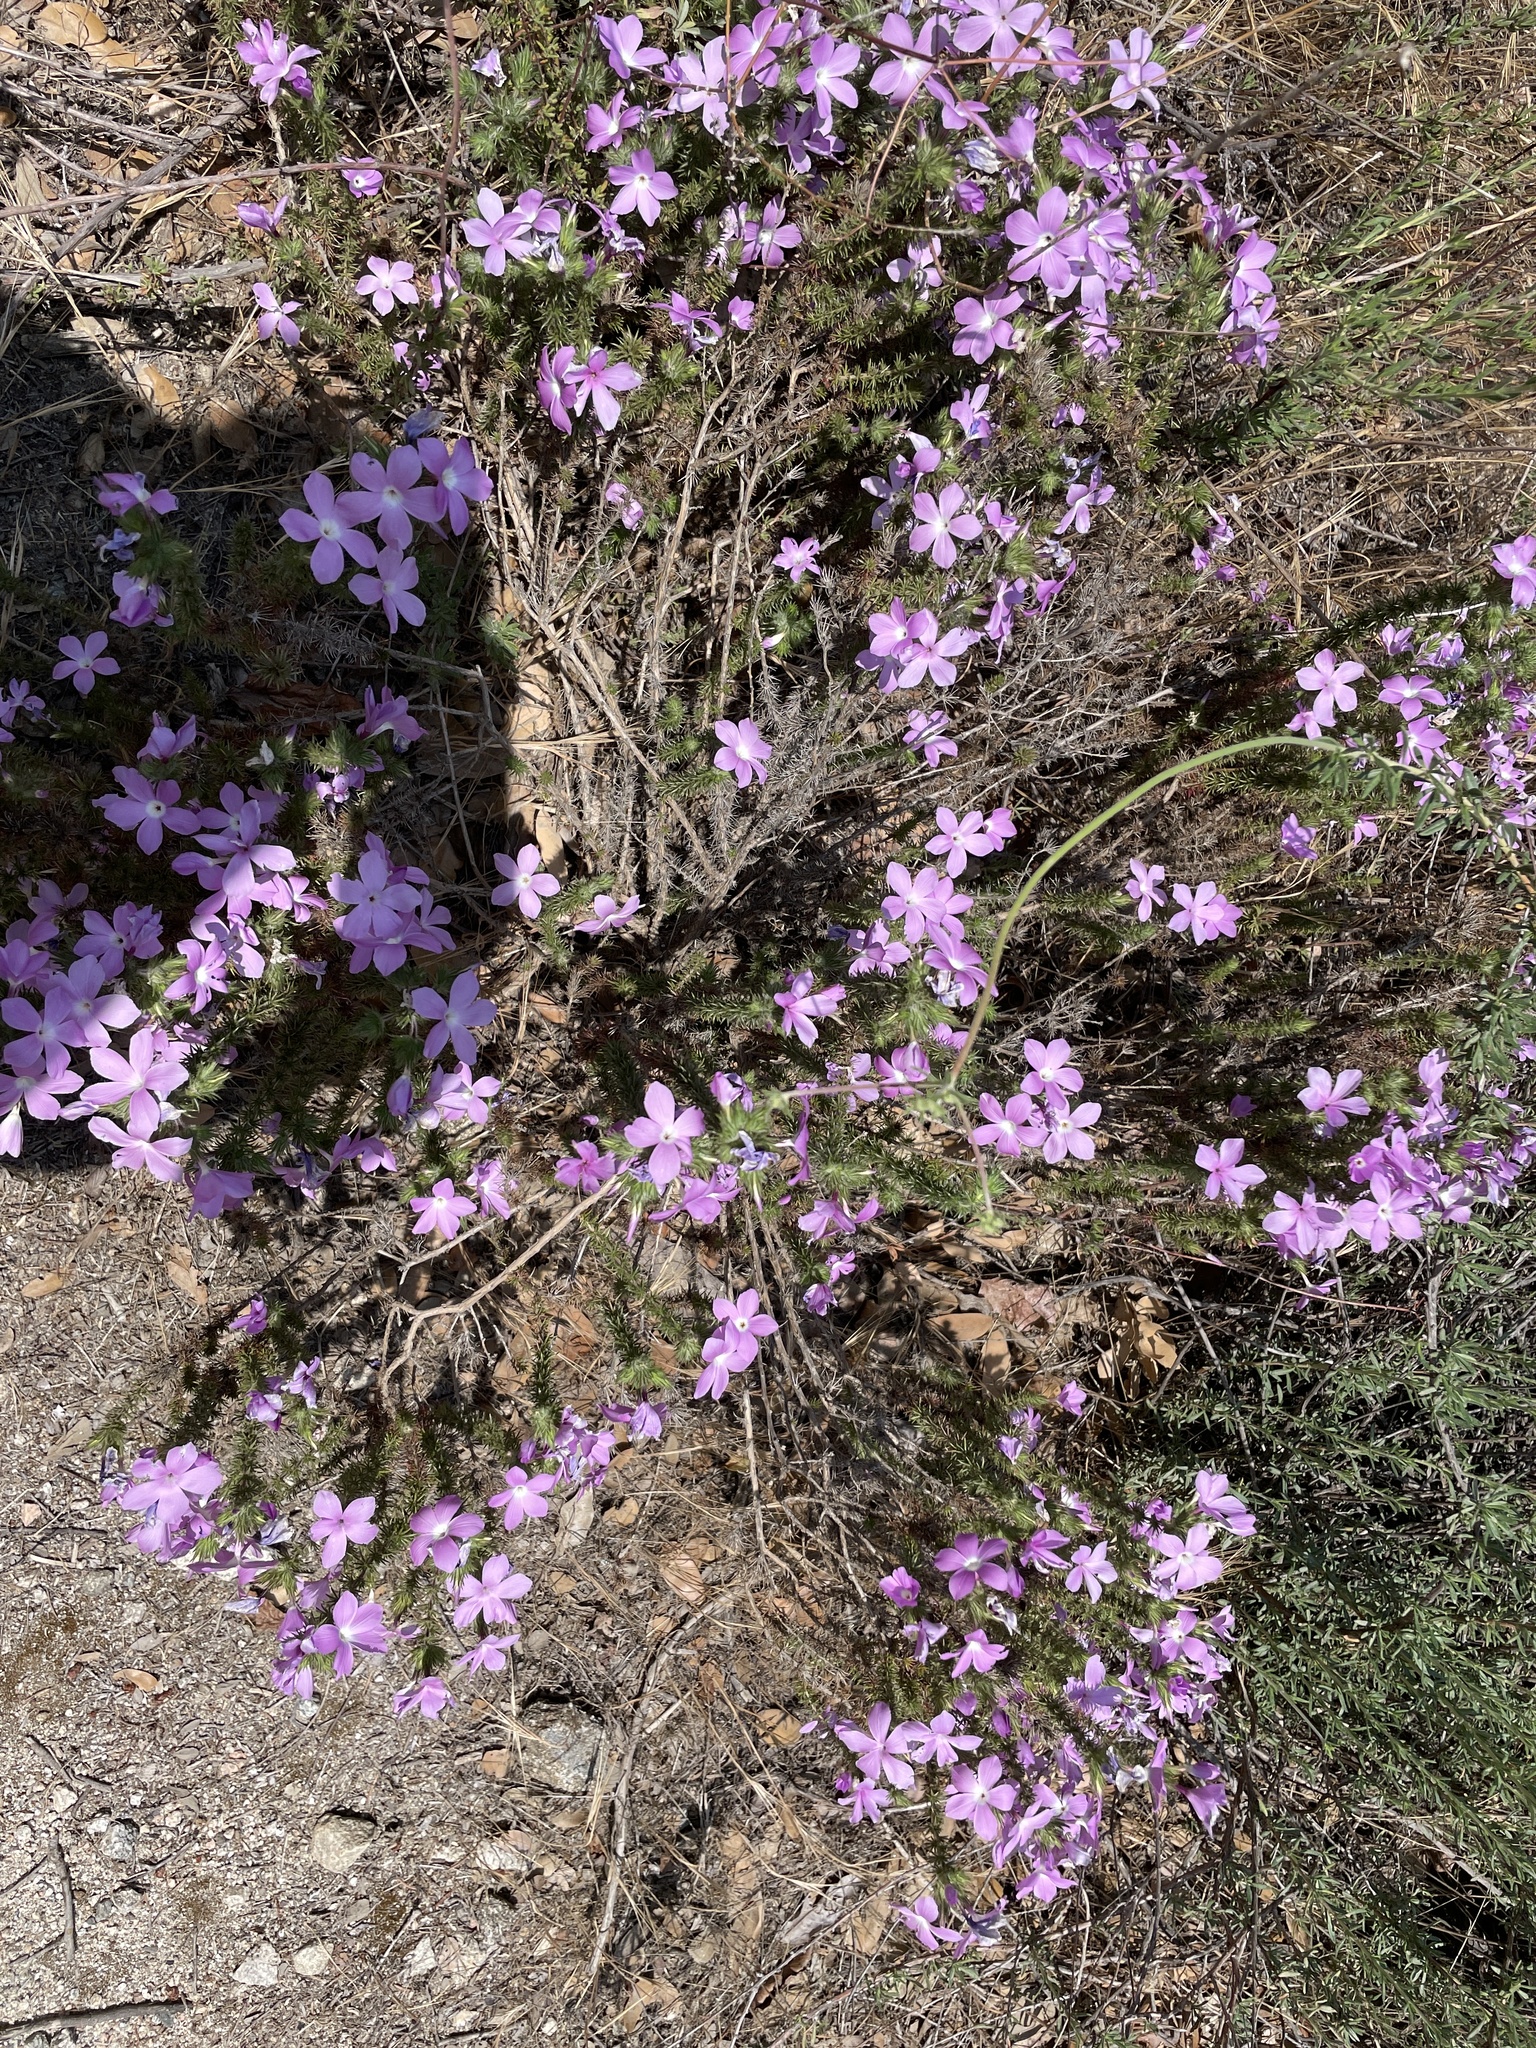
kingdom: Plantae
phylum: Tracheophyta
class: Magnoliopsida
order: Ericales
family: Polemoniaceae
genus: Linanthus
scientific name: Linanthus californicus
